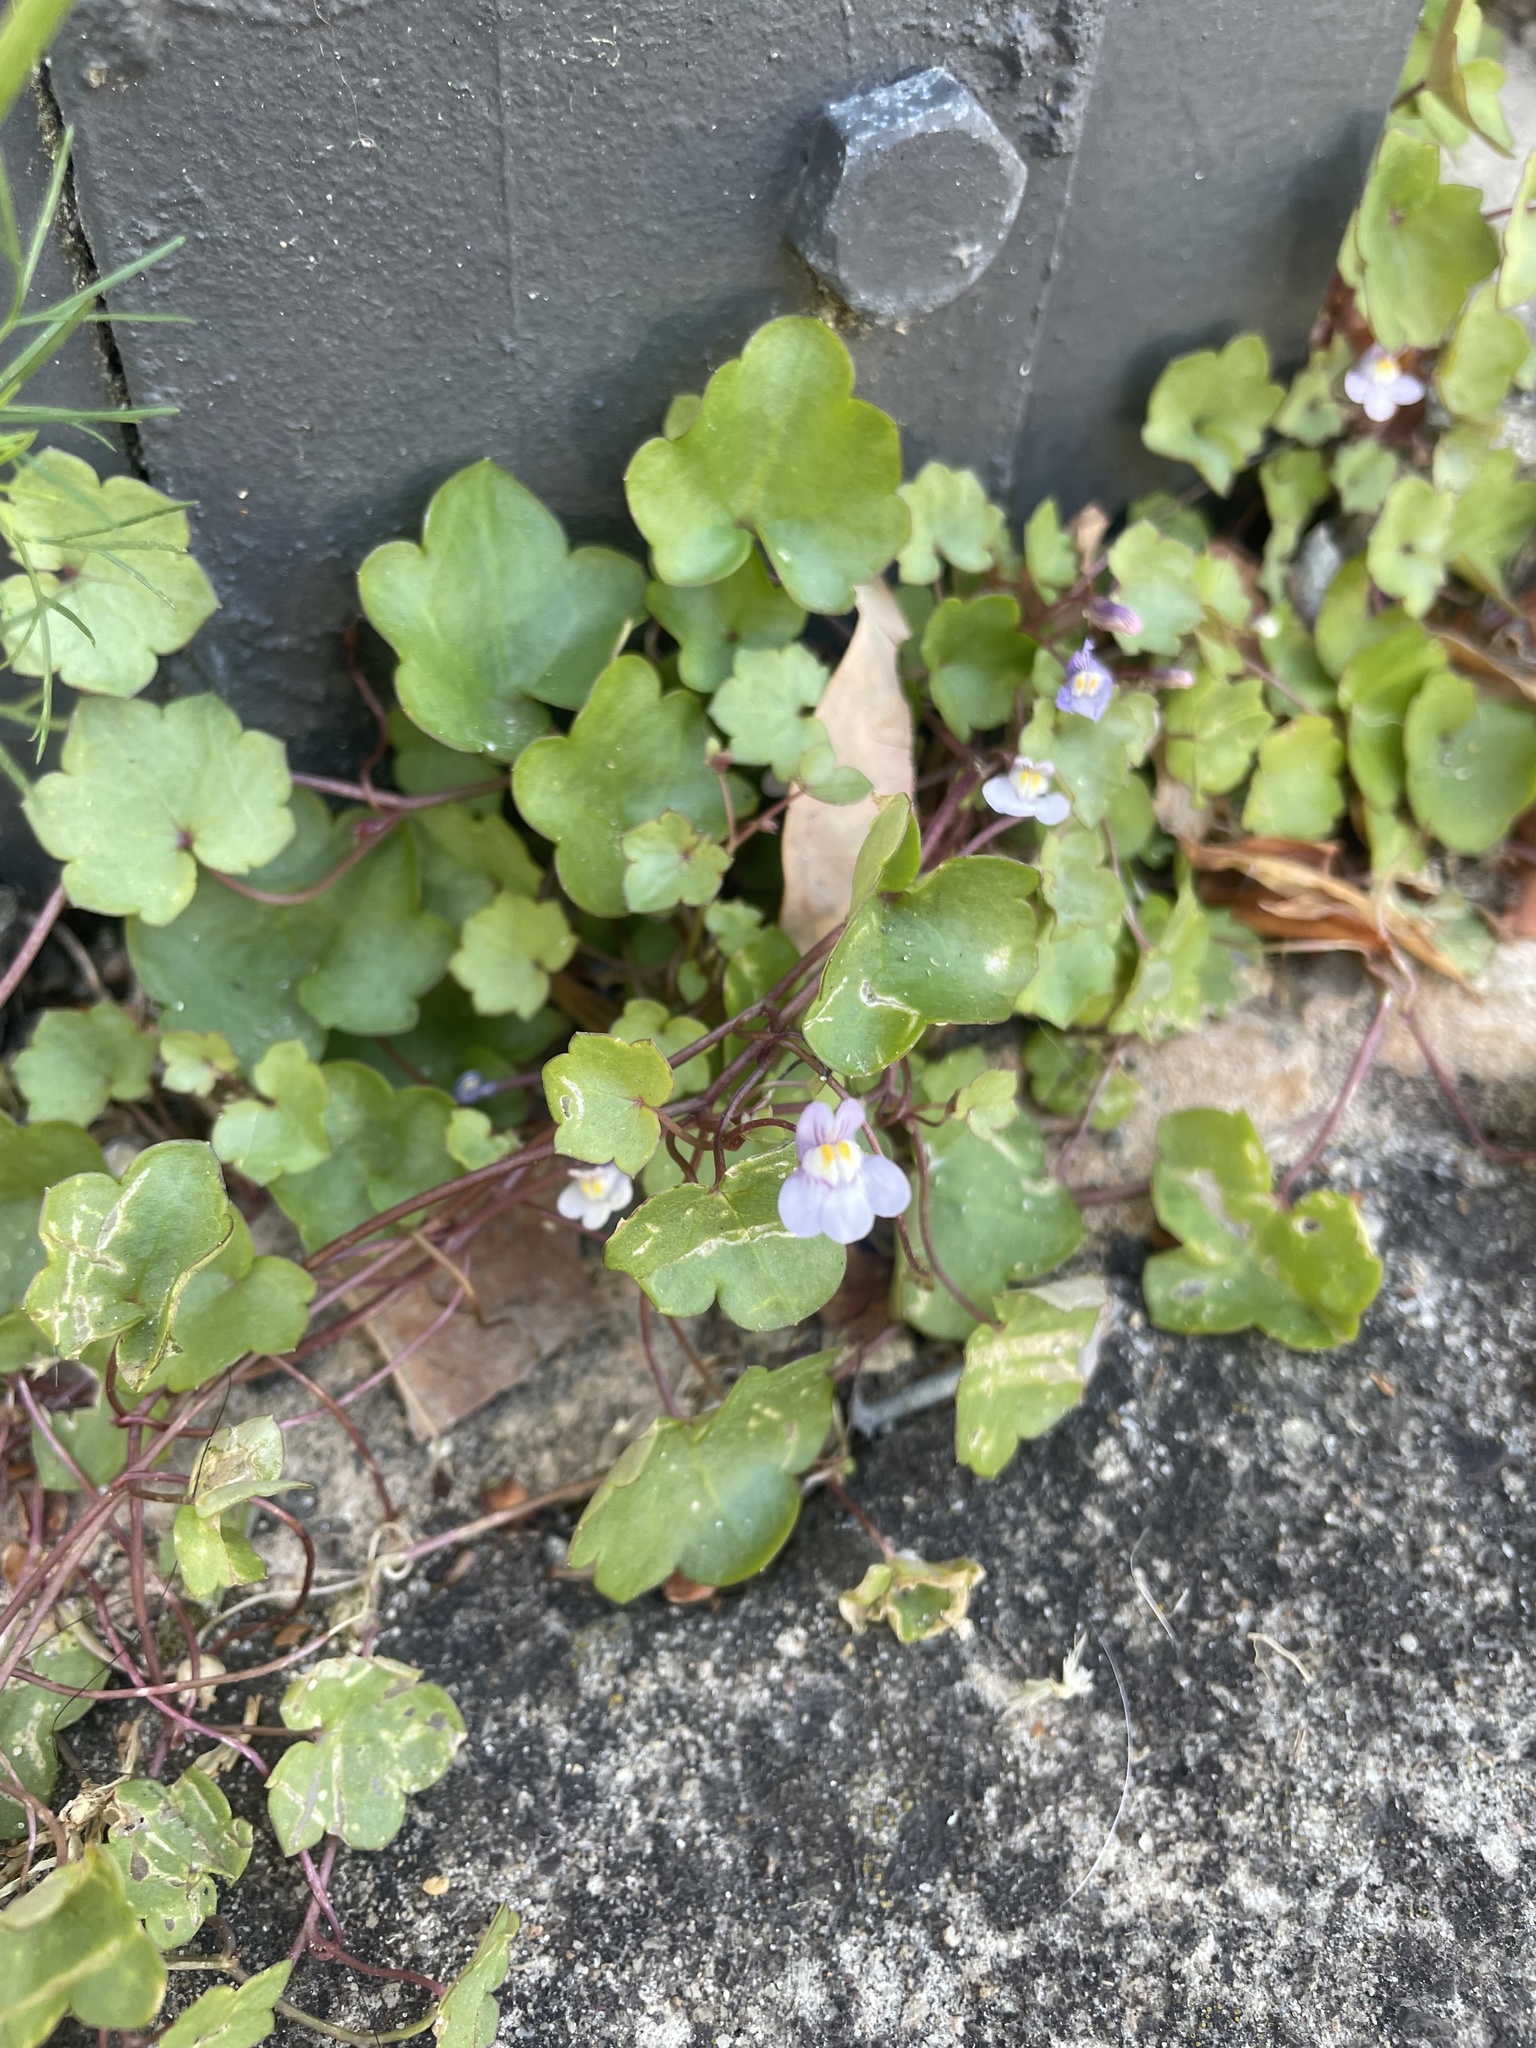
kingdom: Plantae
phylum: Tracheophyta
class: Magnoliopsida
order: Lamiales
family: Plantaginaceae
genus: Cymbalaria
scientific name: Cymbalaria muralis
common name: Ivy-leaved toadflax
